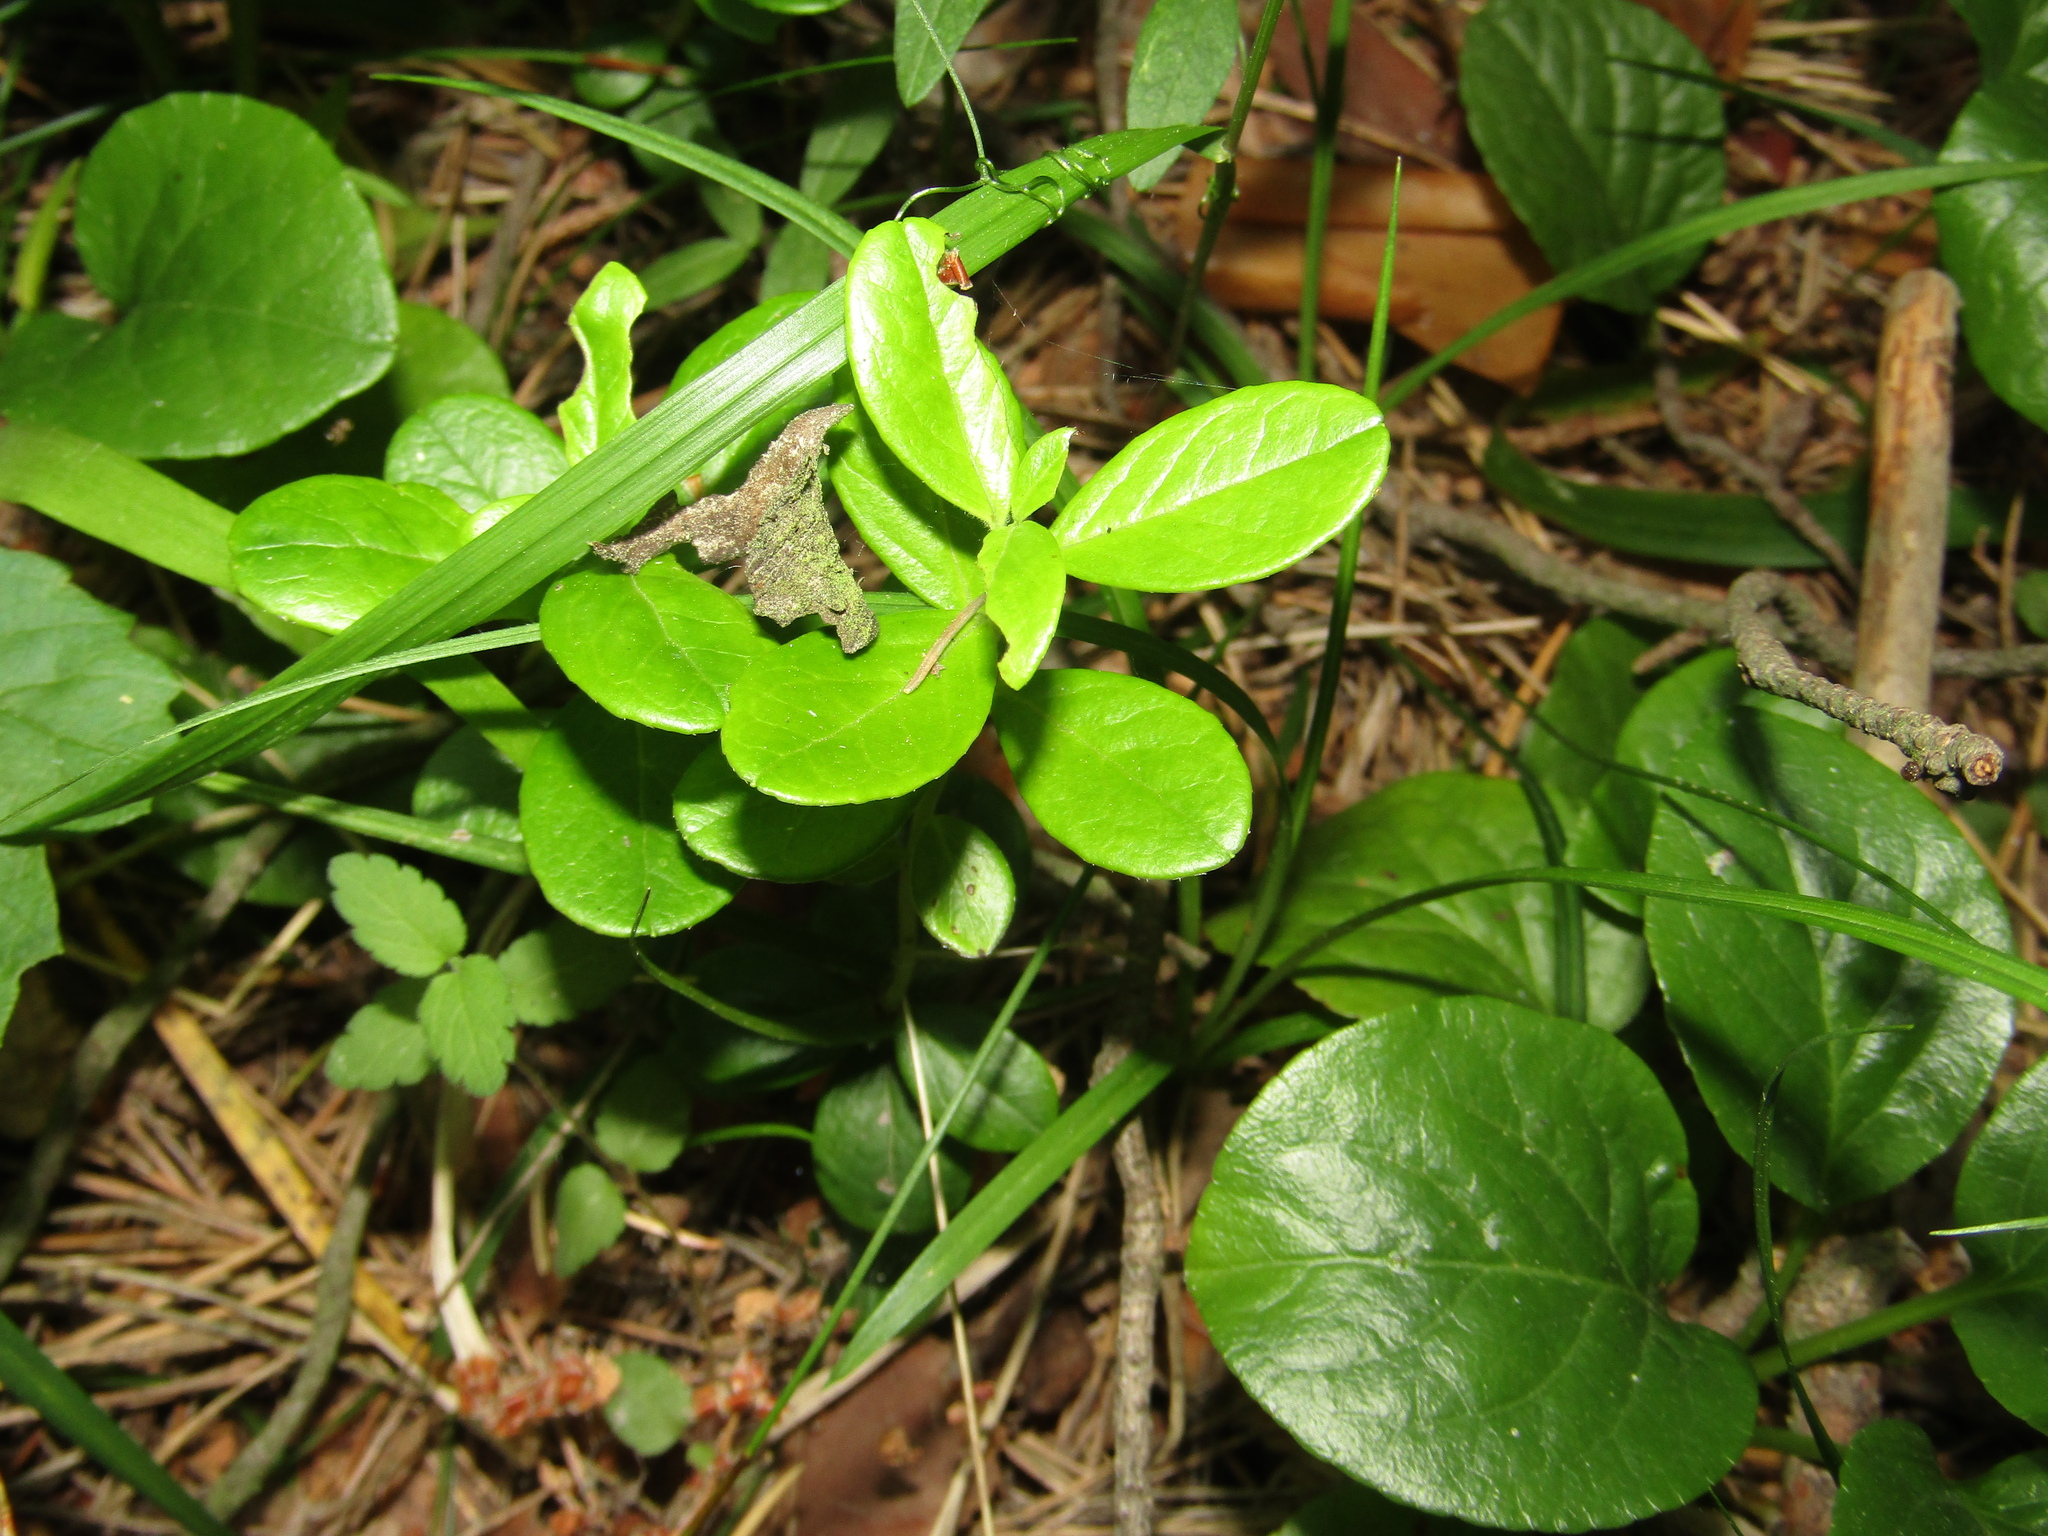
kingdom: Plantae
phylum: Tracheophyta
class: Magnoliopsida
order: Ericales
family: Ericaceae
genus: Vaccinium
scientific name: Vaccinium vitis-idaea
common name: Cowberry
